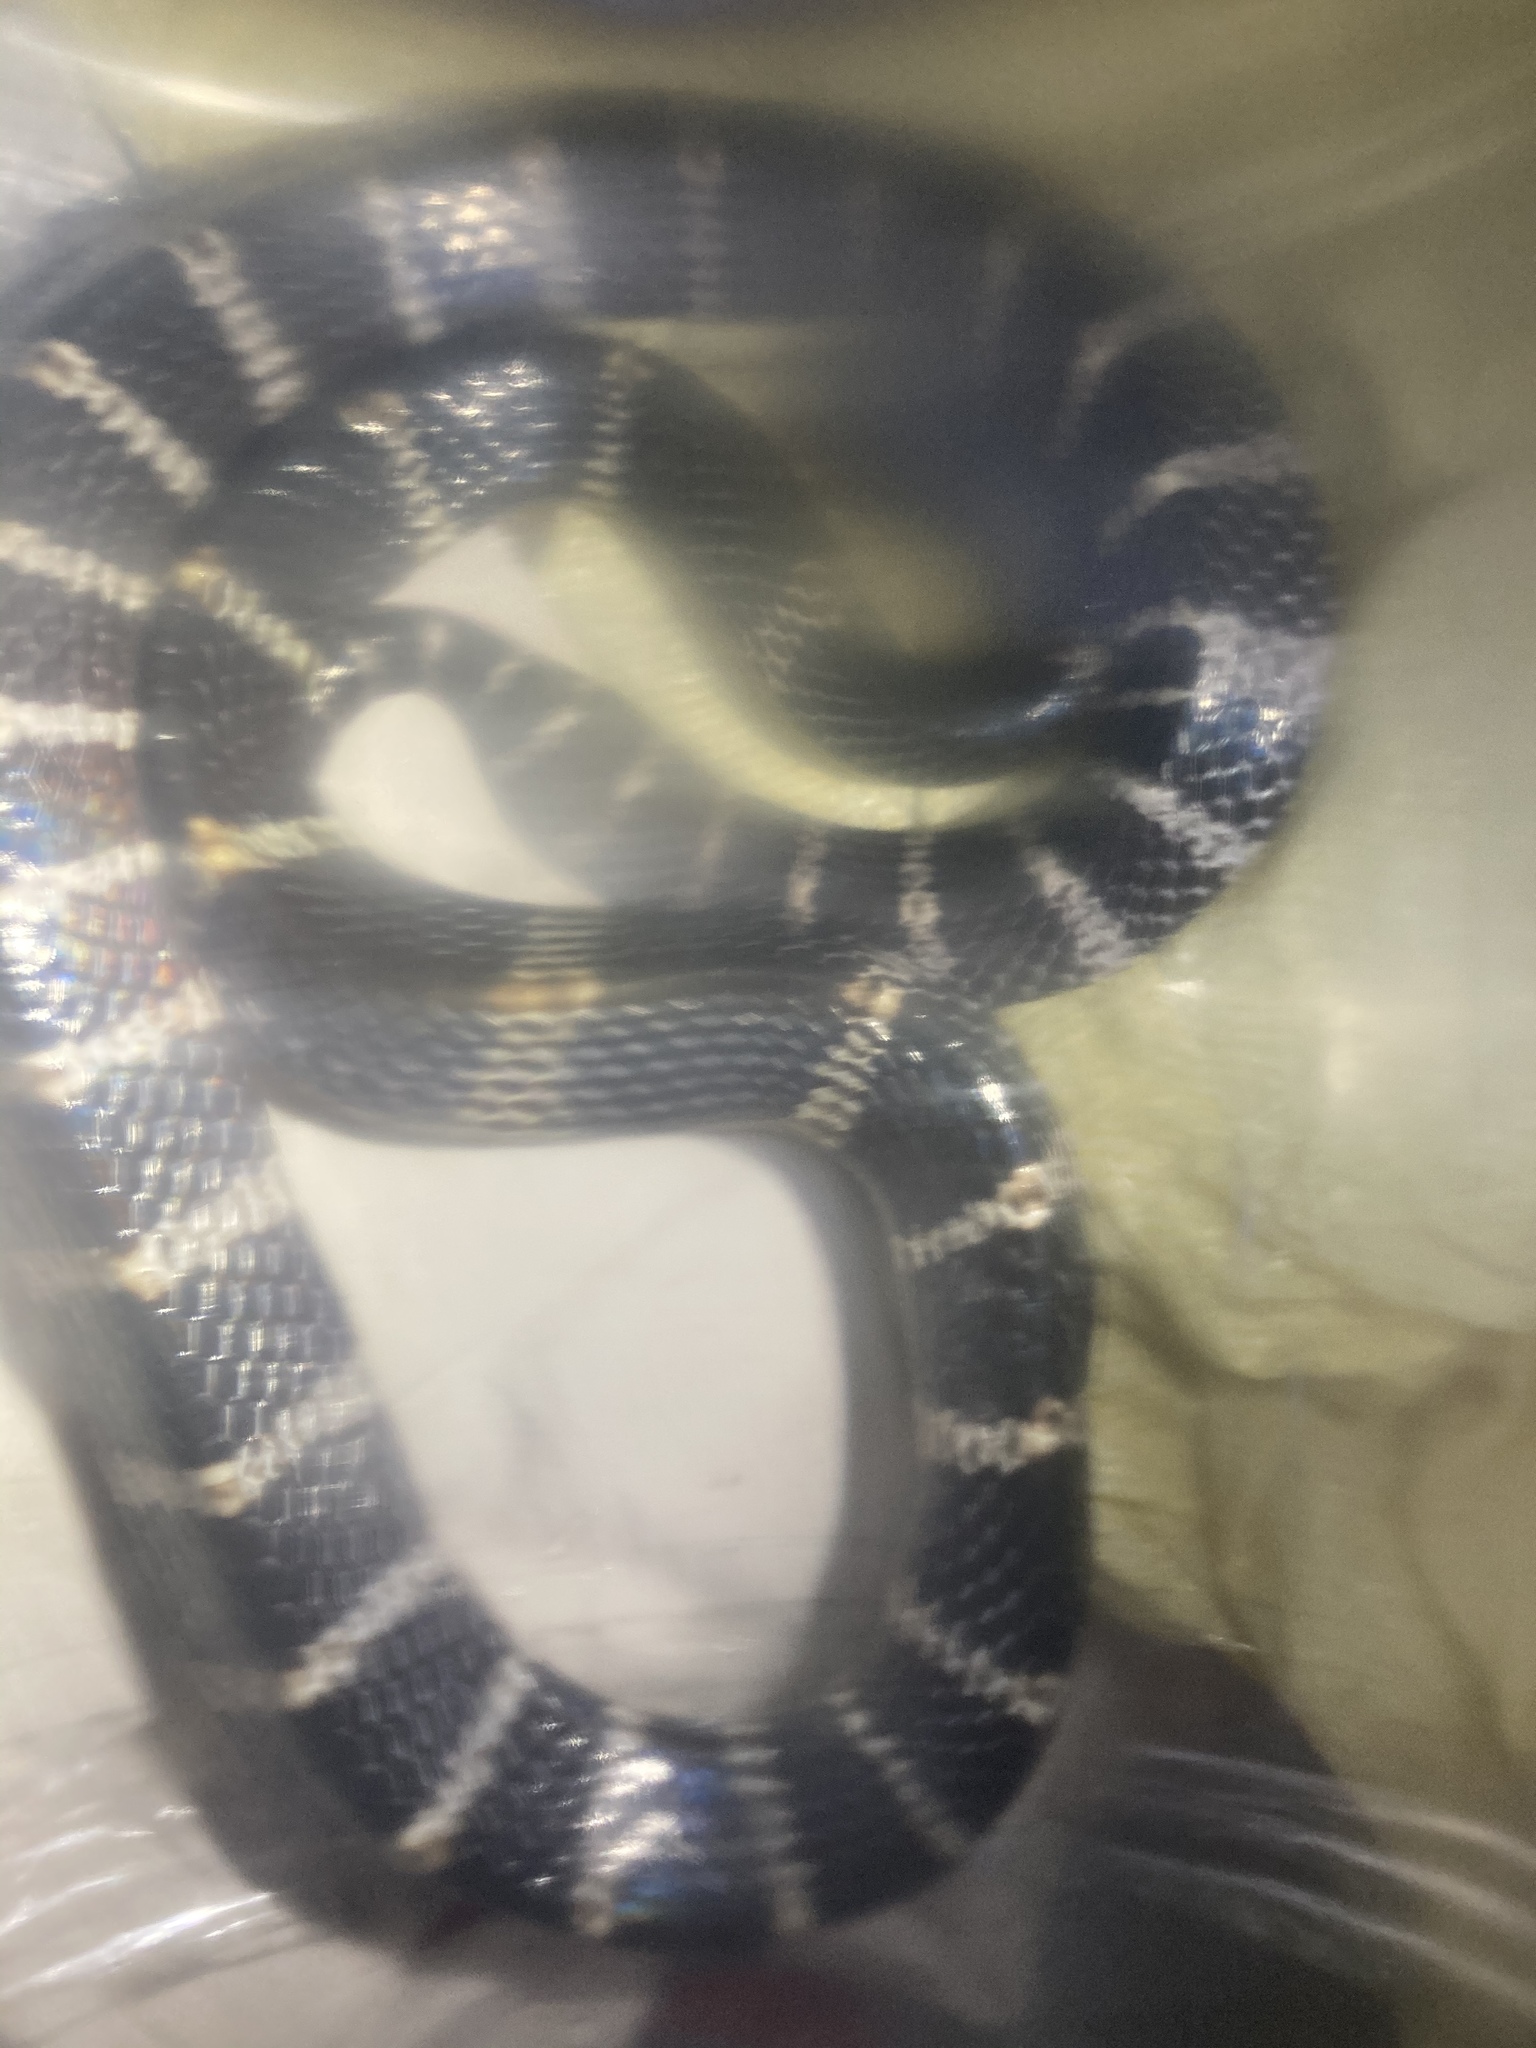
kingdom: Animalia
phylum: Chordata
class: Squamata
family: Elapidae
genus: Bungarus
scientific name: Bungarus multicinctus
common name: Many-banded krait
